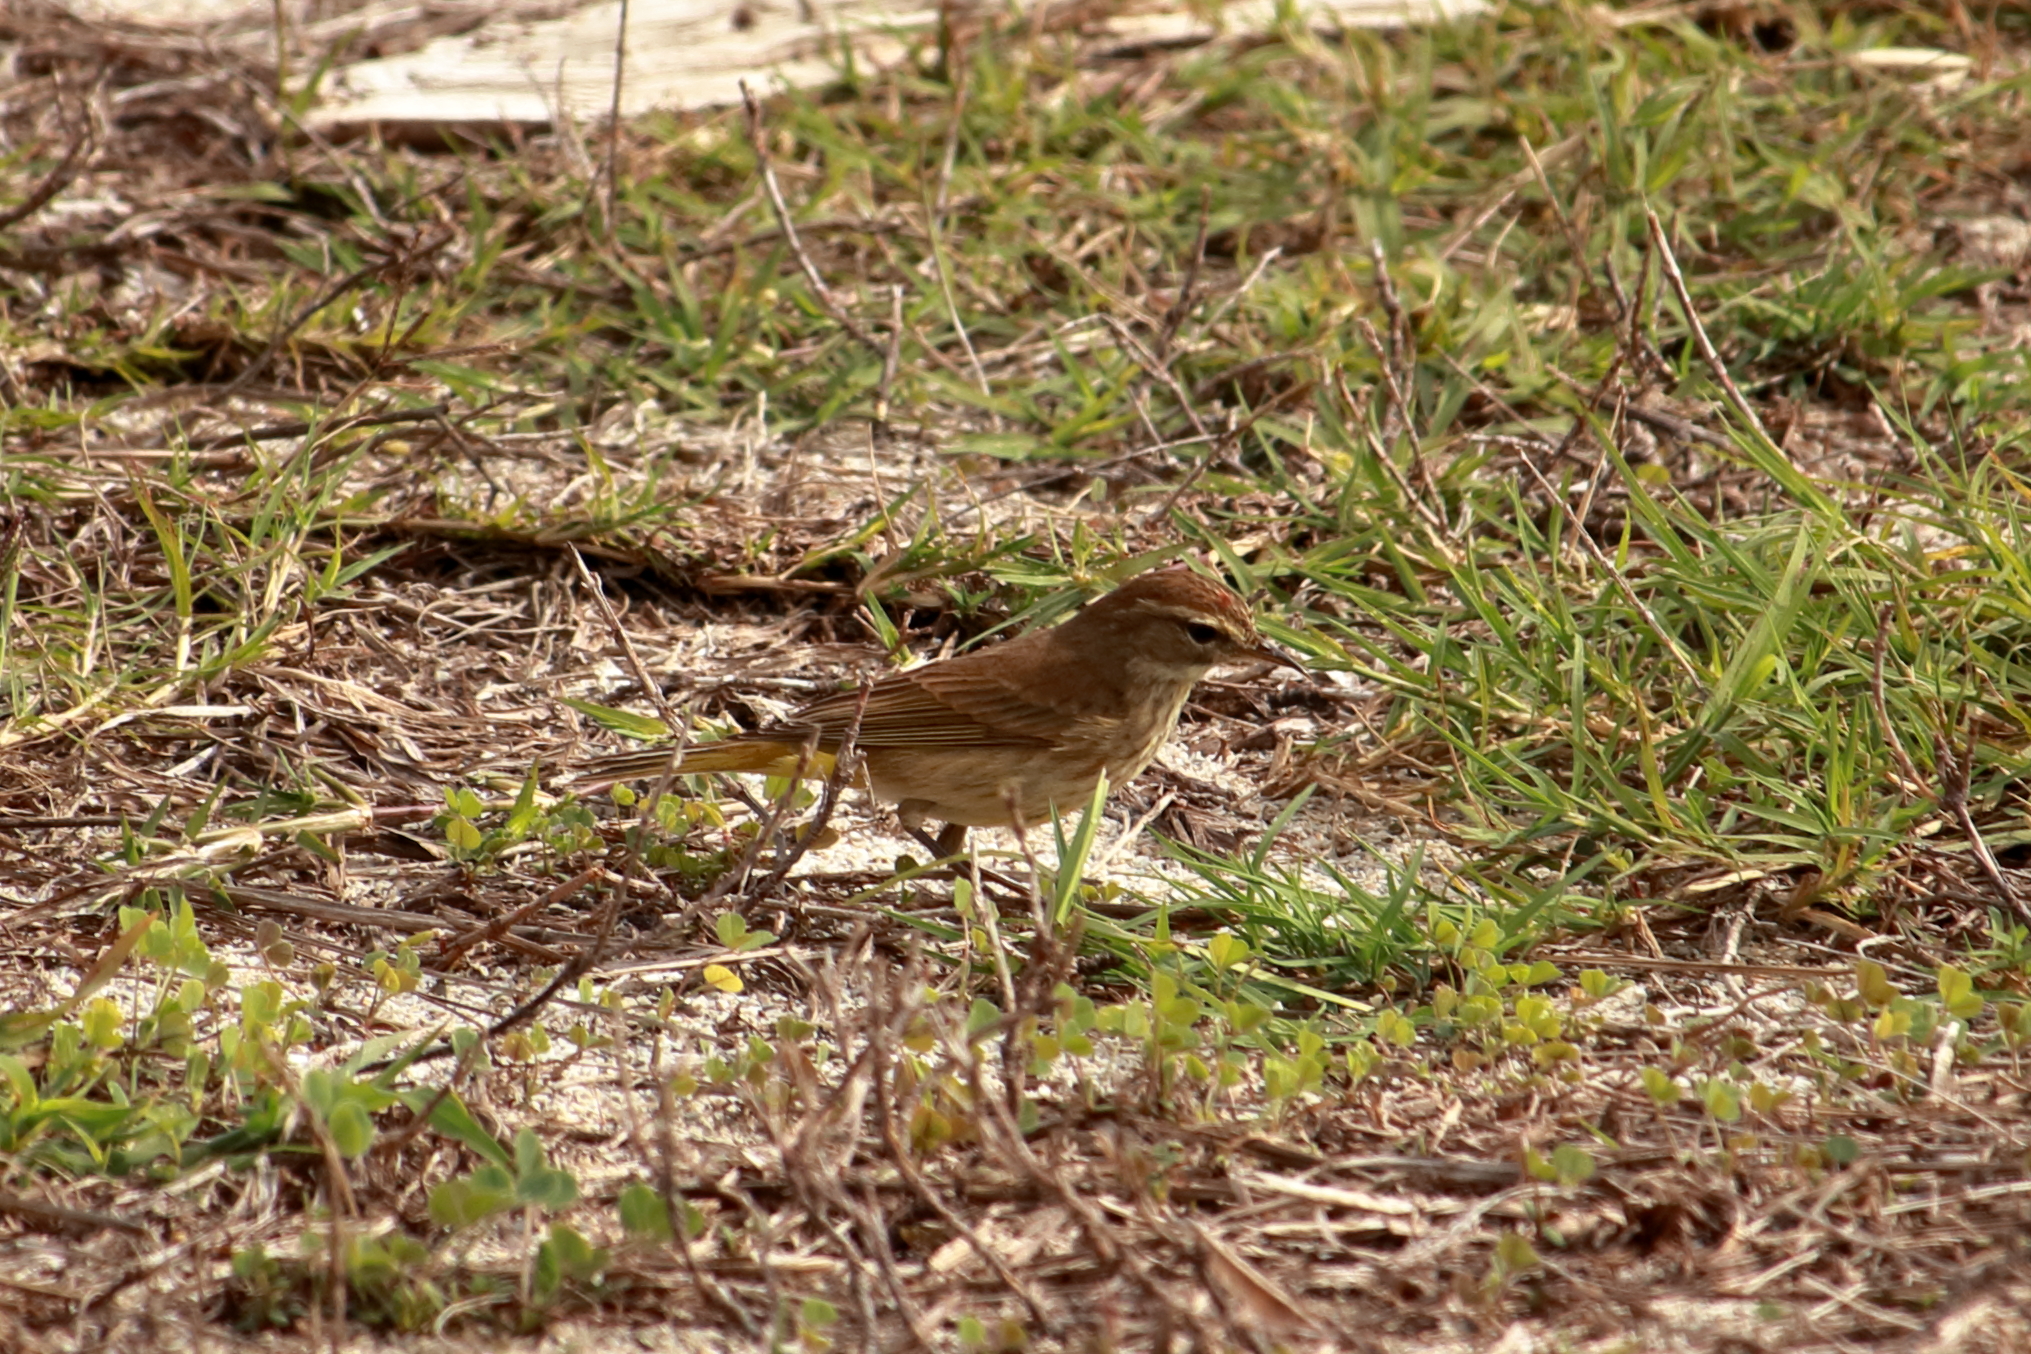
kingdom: Animalia
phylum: Chordata
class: Aves
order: Passeriformes
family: Parulidae
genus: Setophaga
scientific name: Setophaga palmarum
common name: Palm warbler
